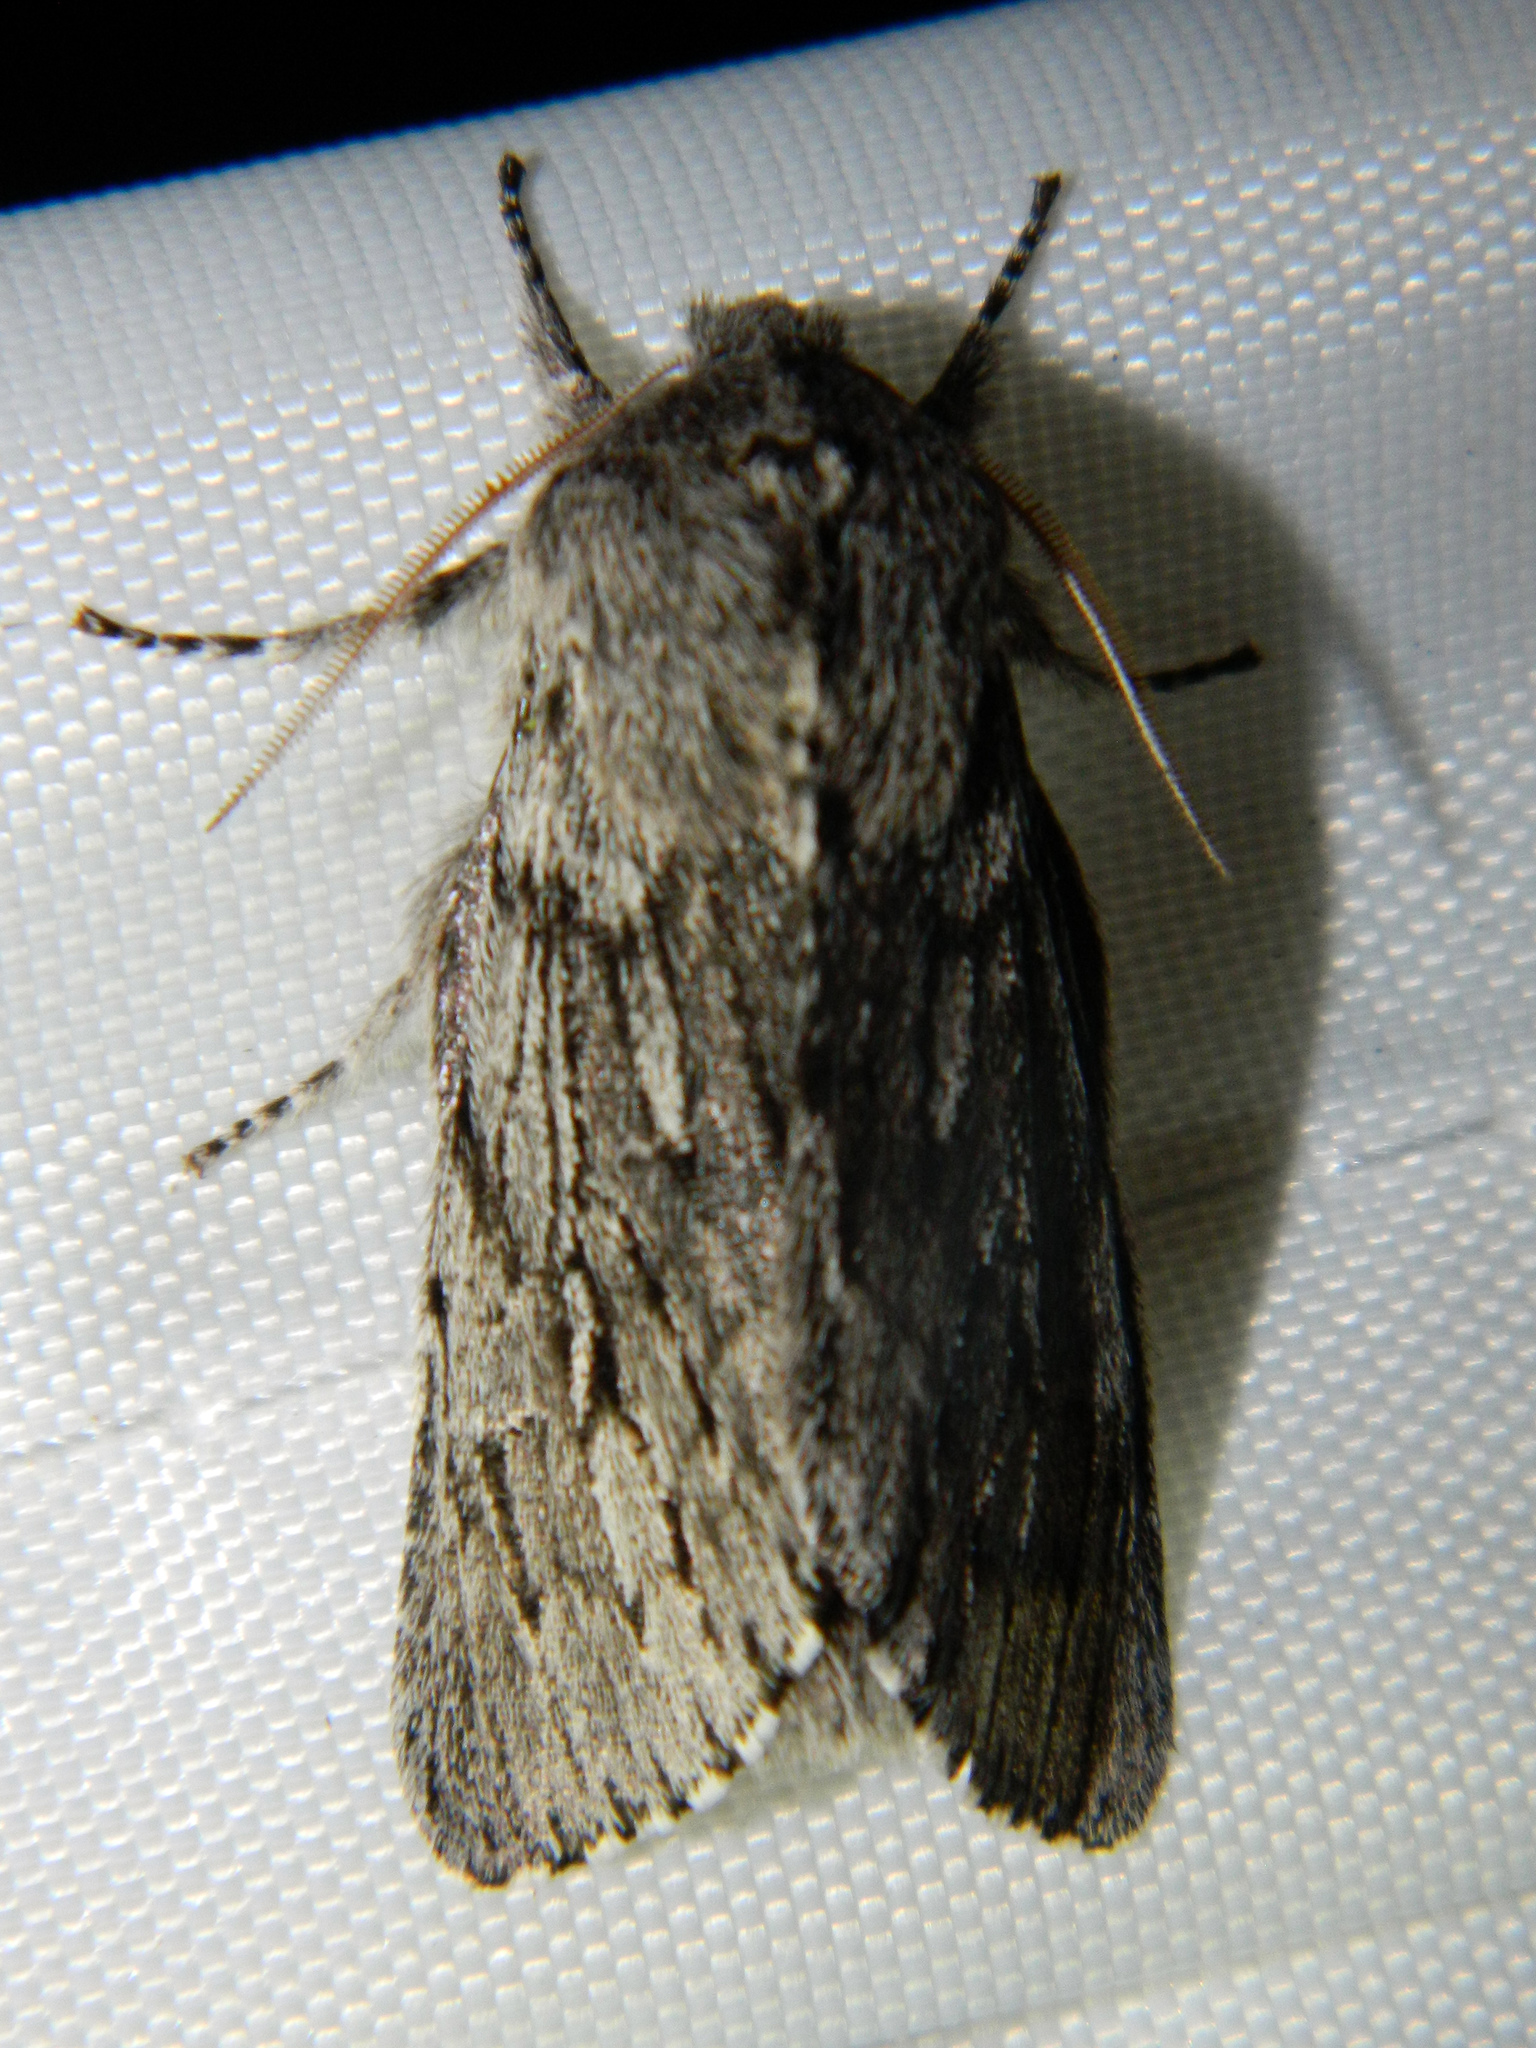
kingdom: Animalia
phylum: Arthropoda
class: Insecta
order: Lepidoptera
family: Noctuidae
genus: Brachionycha
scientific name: Brachionycha borealis
